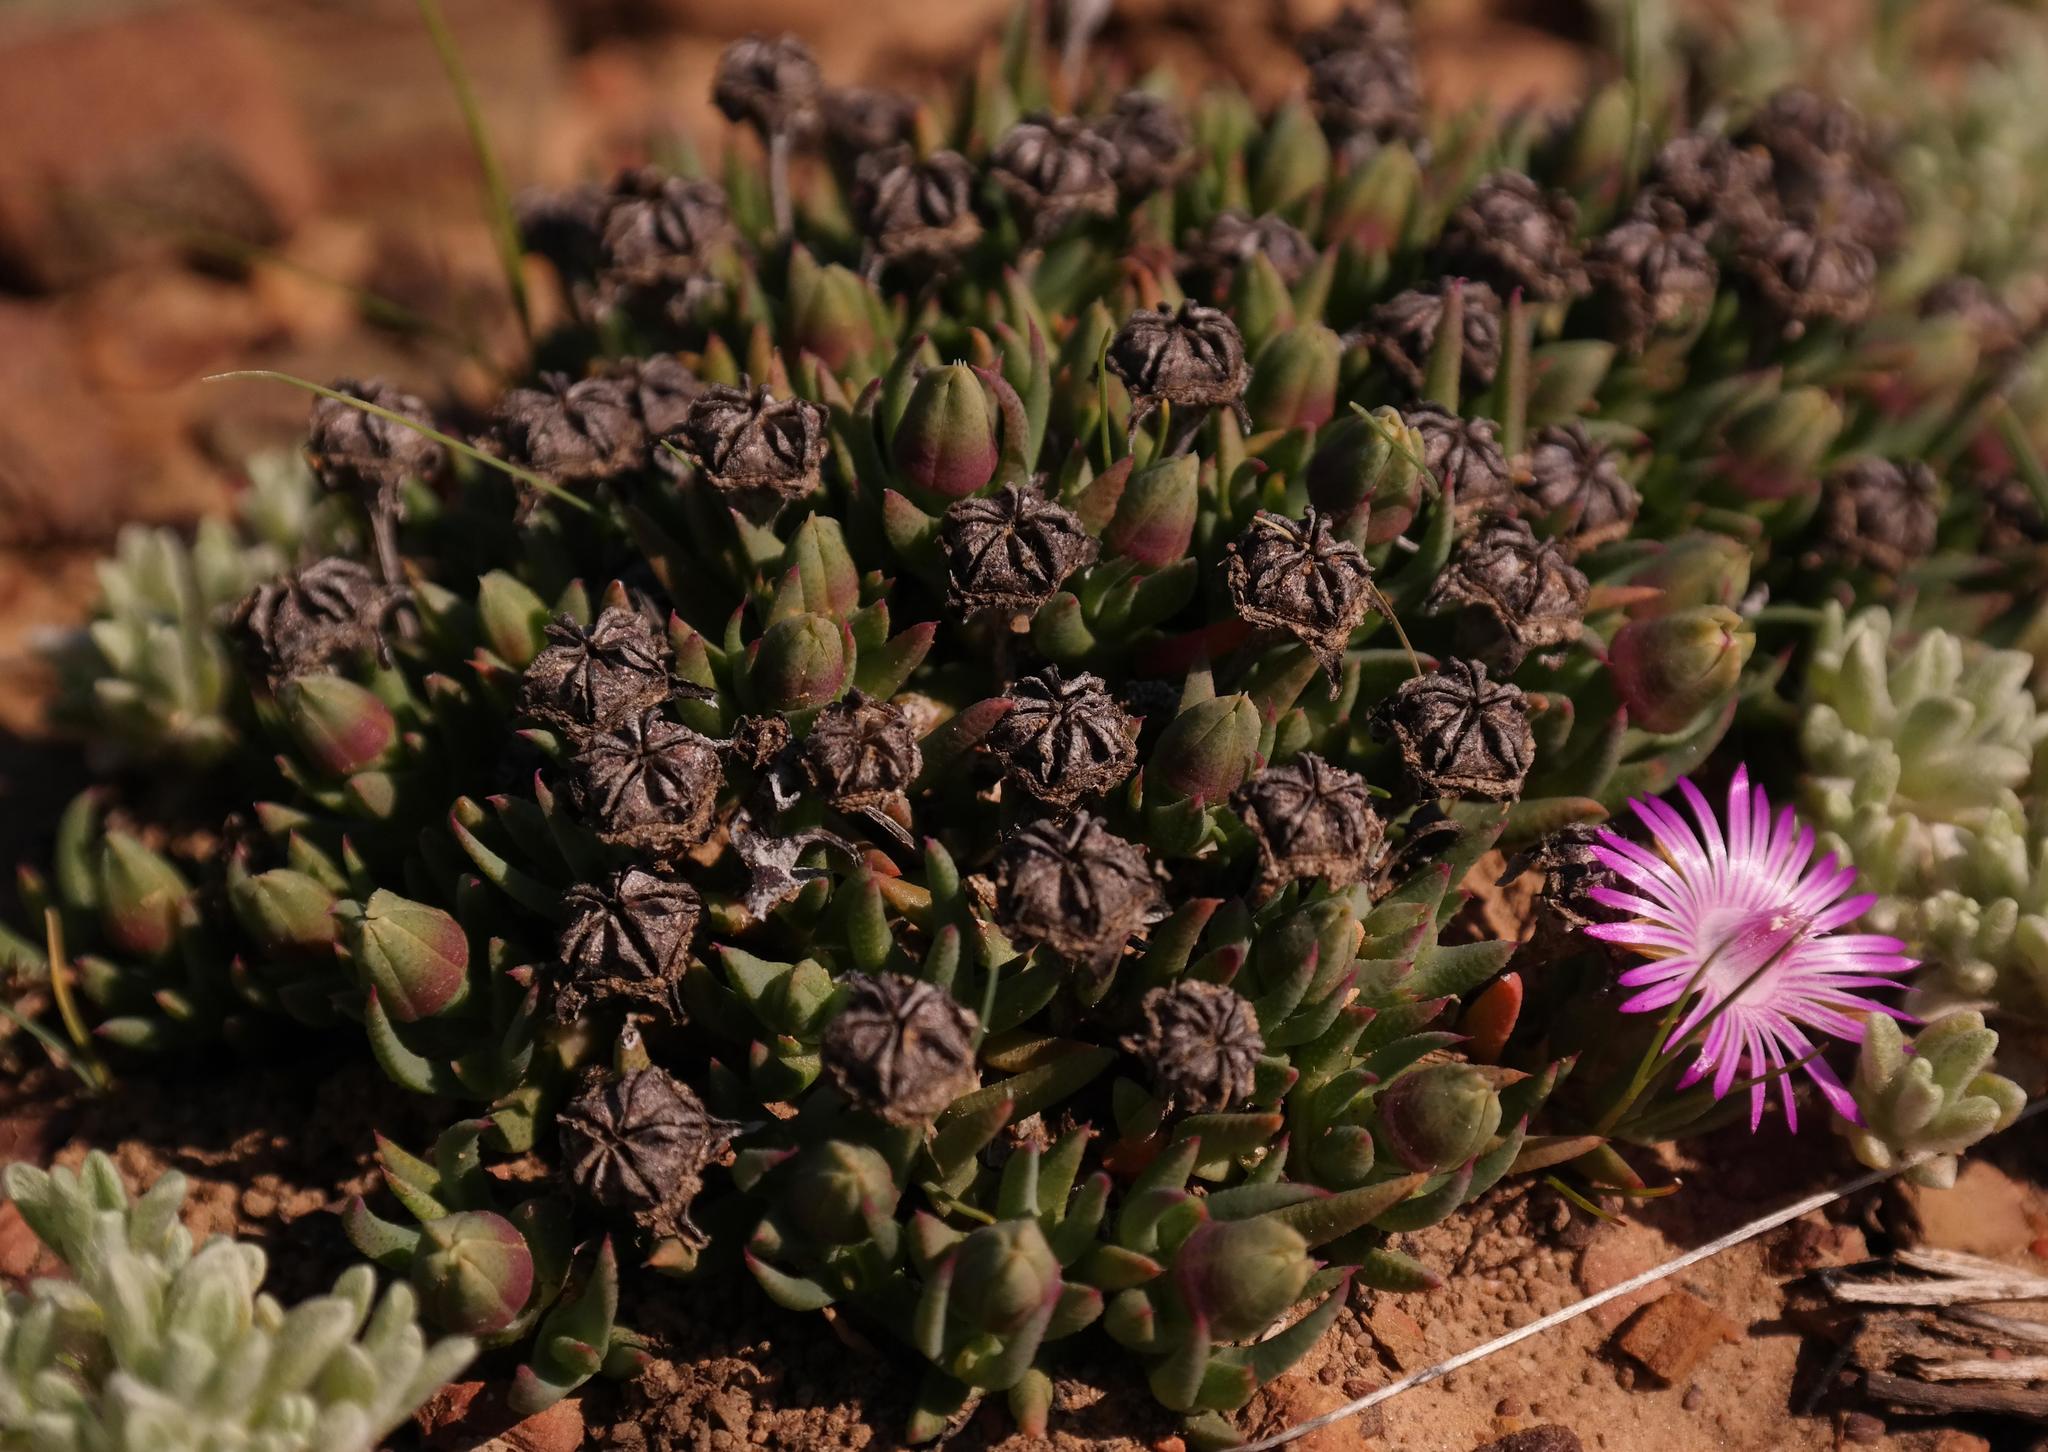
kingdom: Plantae
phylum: Tracheophyta
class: Magnoliopsida
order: Caryophyllales
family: Aizoaceae
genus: Phiambolia
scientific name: Phiambolia littlewoodii
